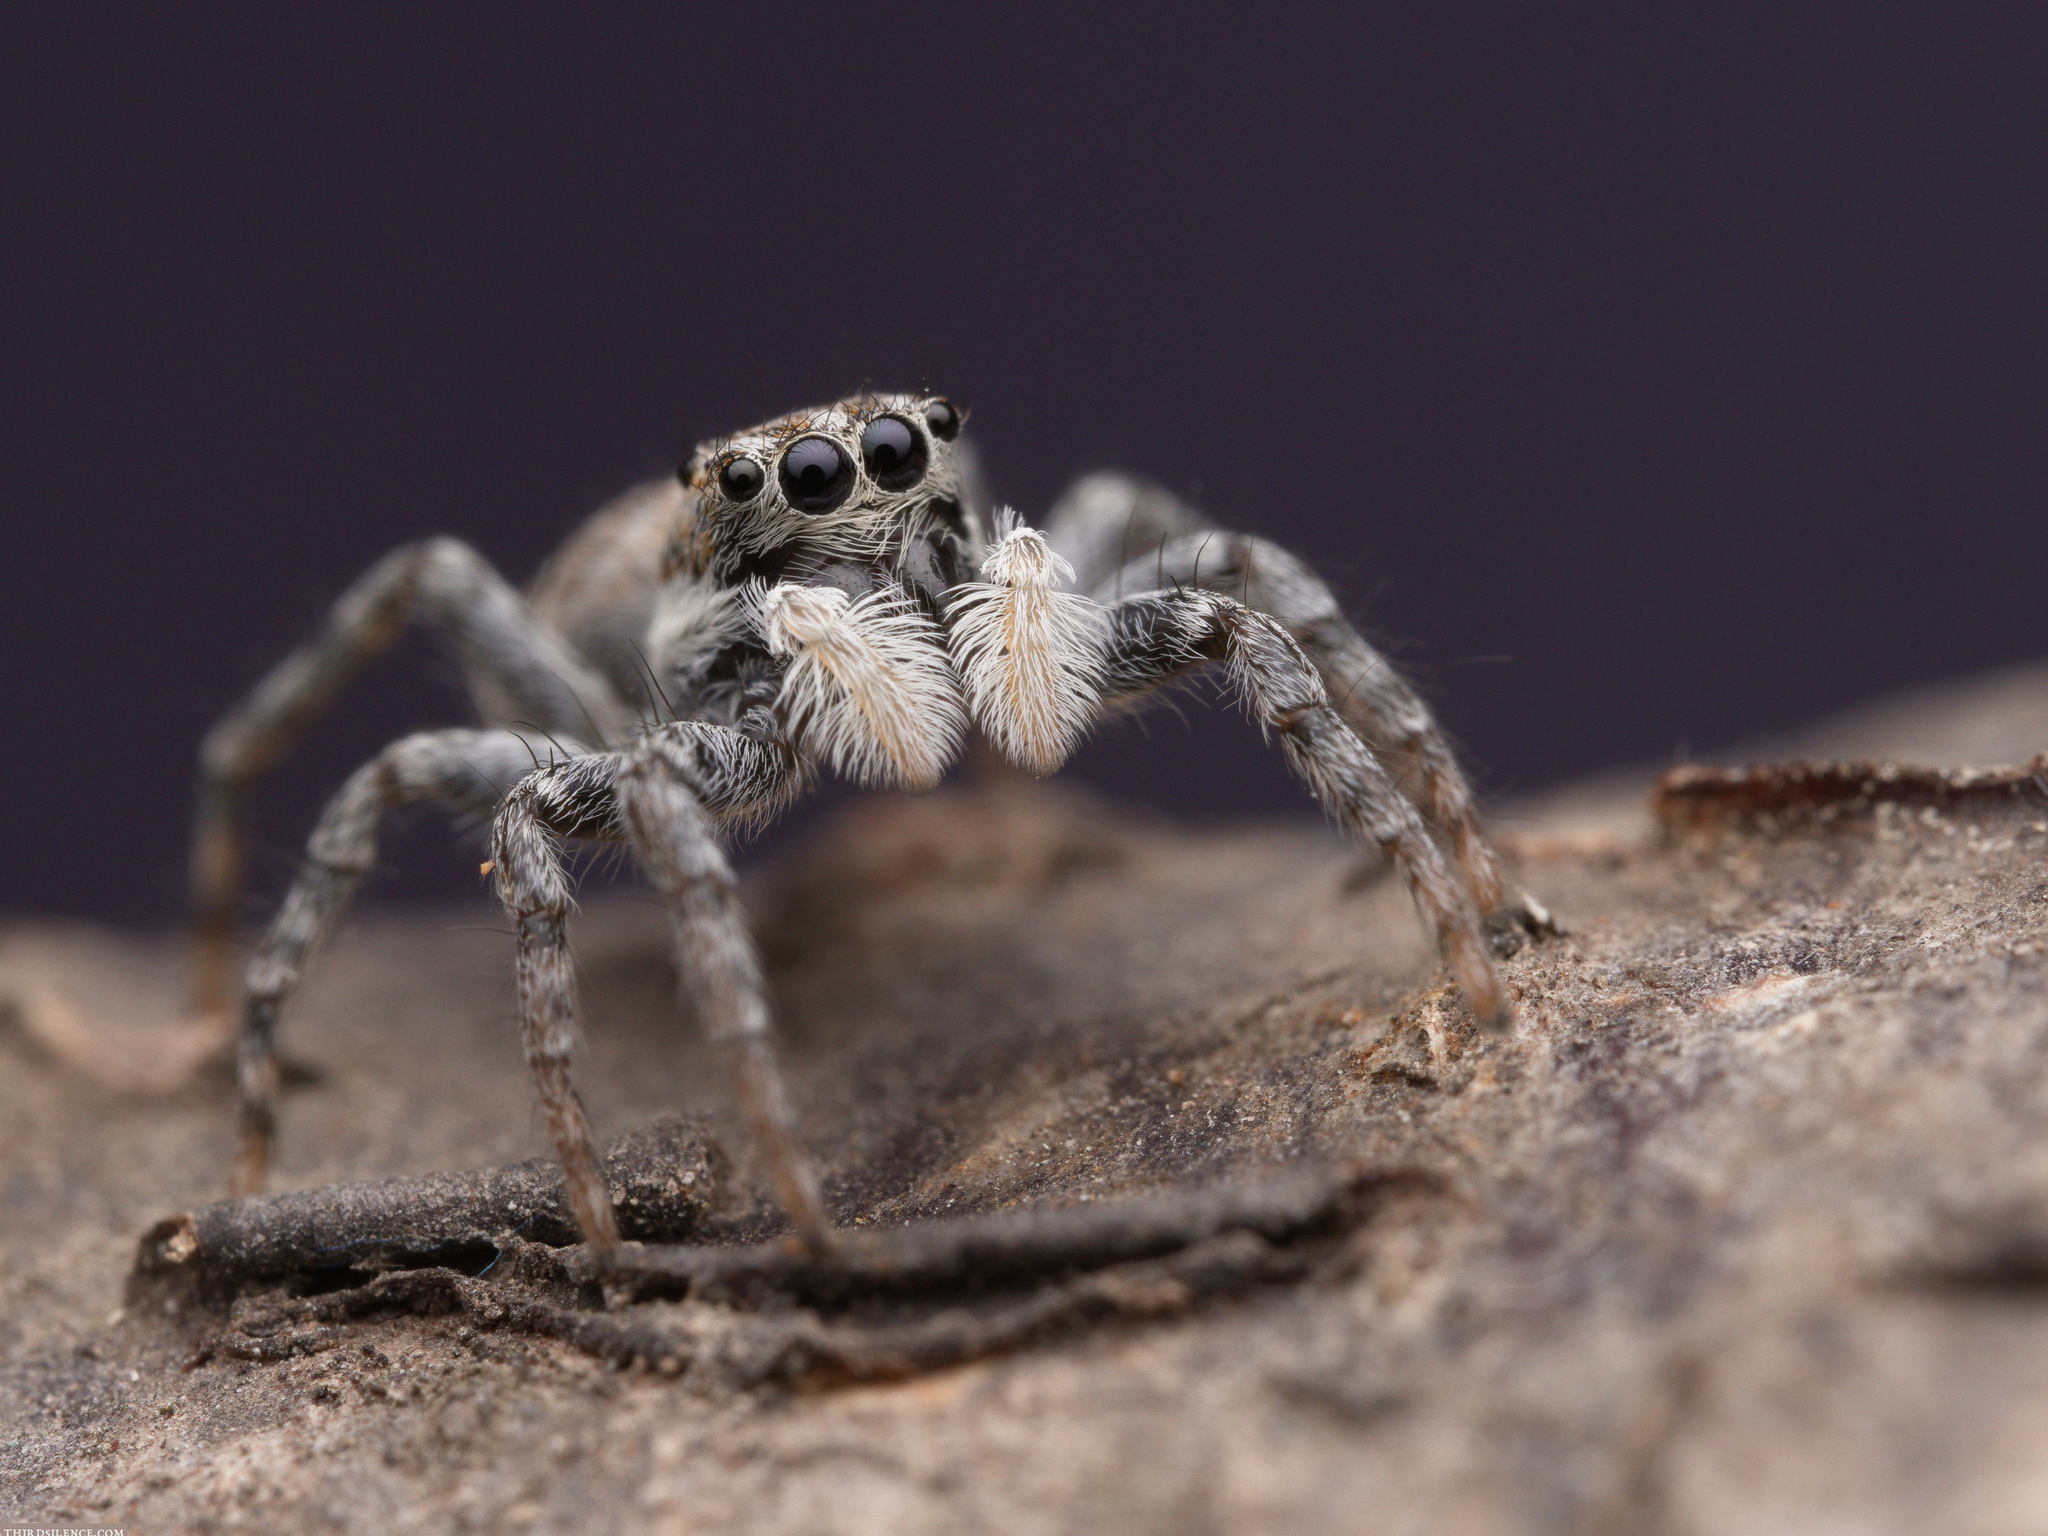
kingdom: Animalia
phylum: Arthropoda
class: Arachnida
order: Araneae
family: Salticidae
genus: Menemerus
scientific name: Menemerus semilimbatus
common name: Jumping spider
